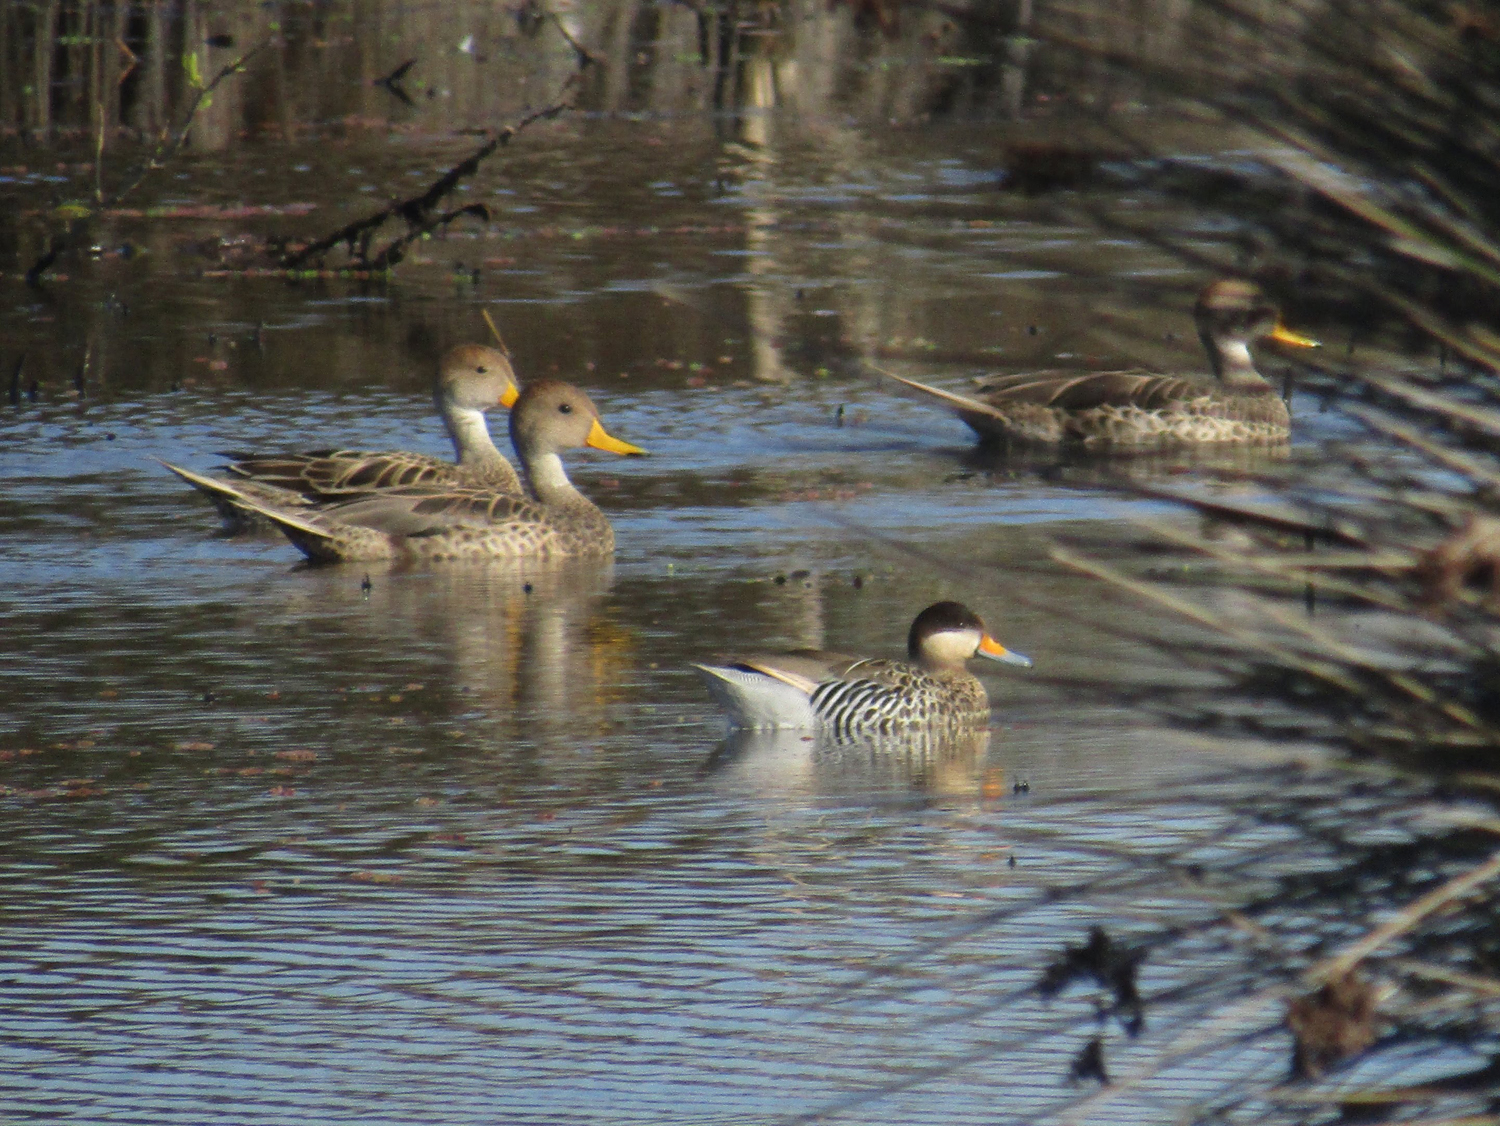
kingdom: Animalia
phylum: Chordata
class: Aves
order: Anseriformes
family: Anatidae
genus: Anas
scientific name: Anas georgica
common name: Yellow-billed pintail
